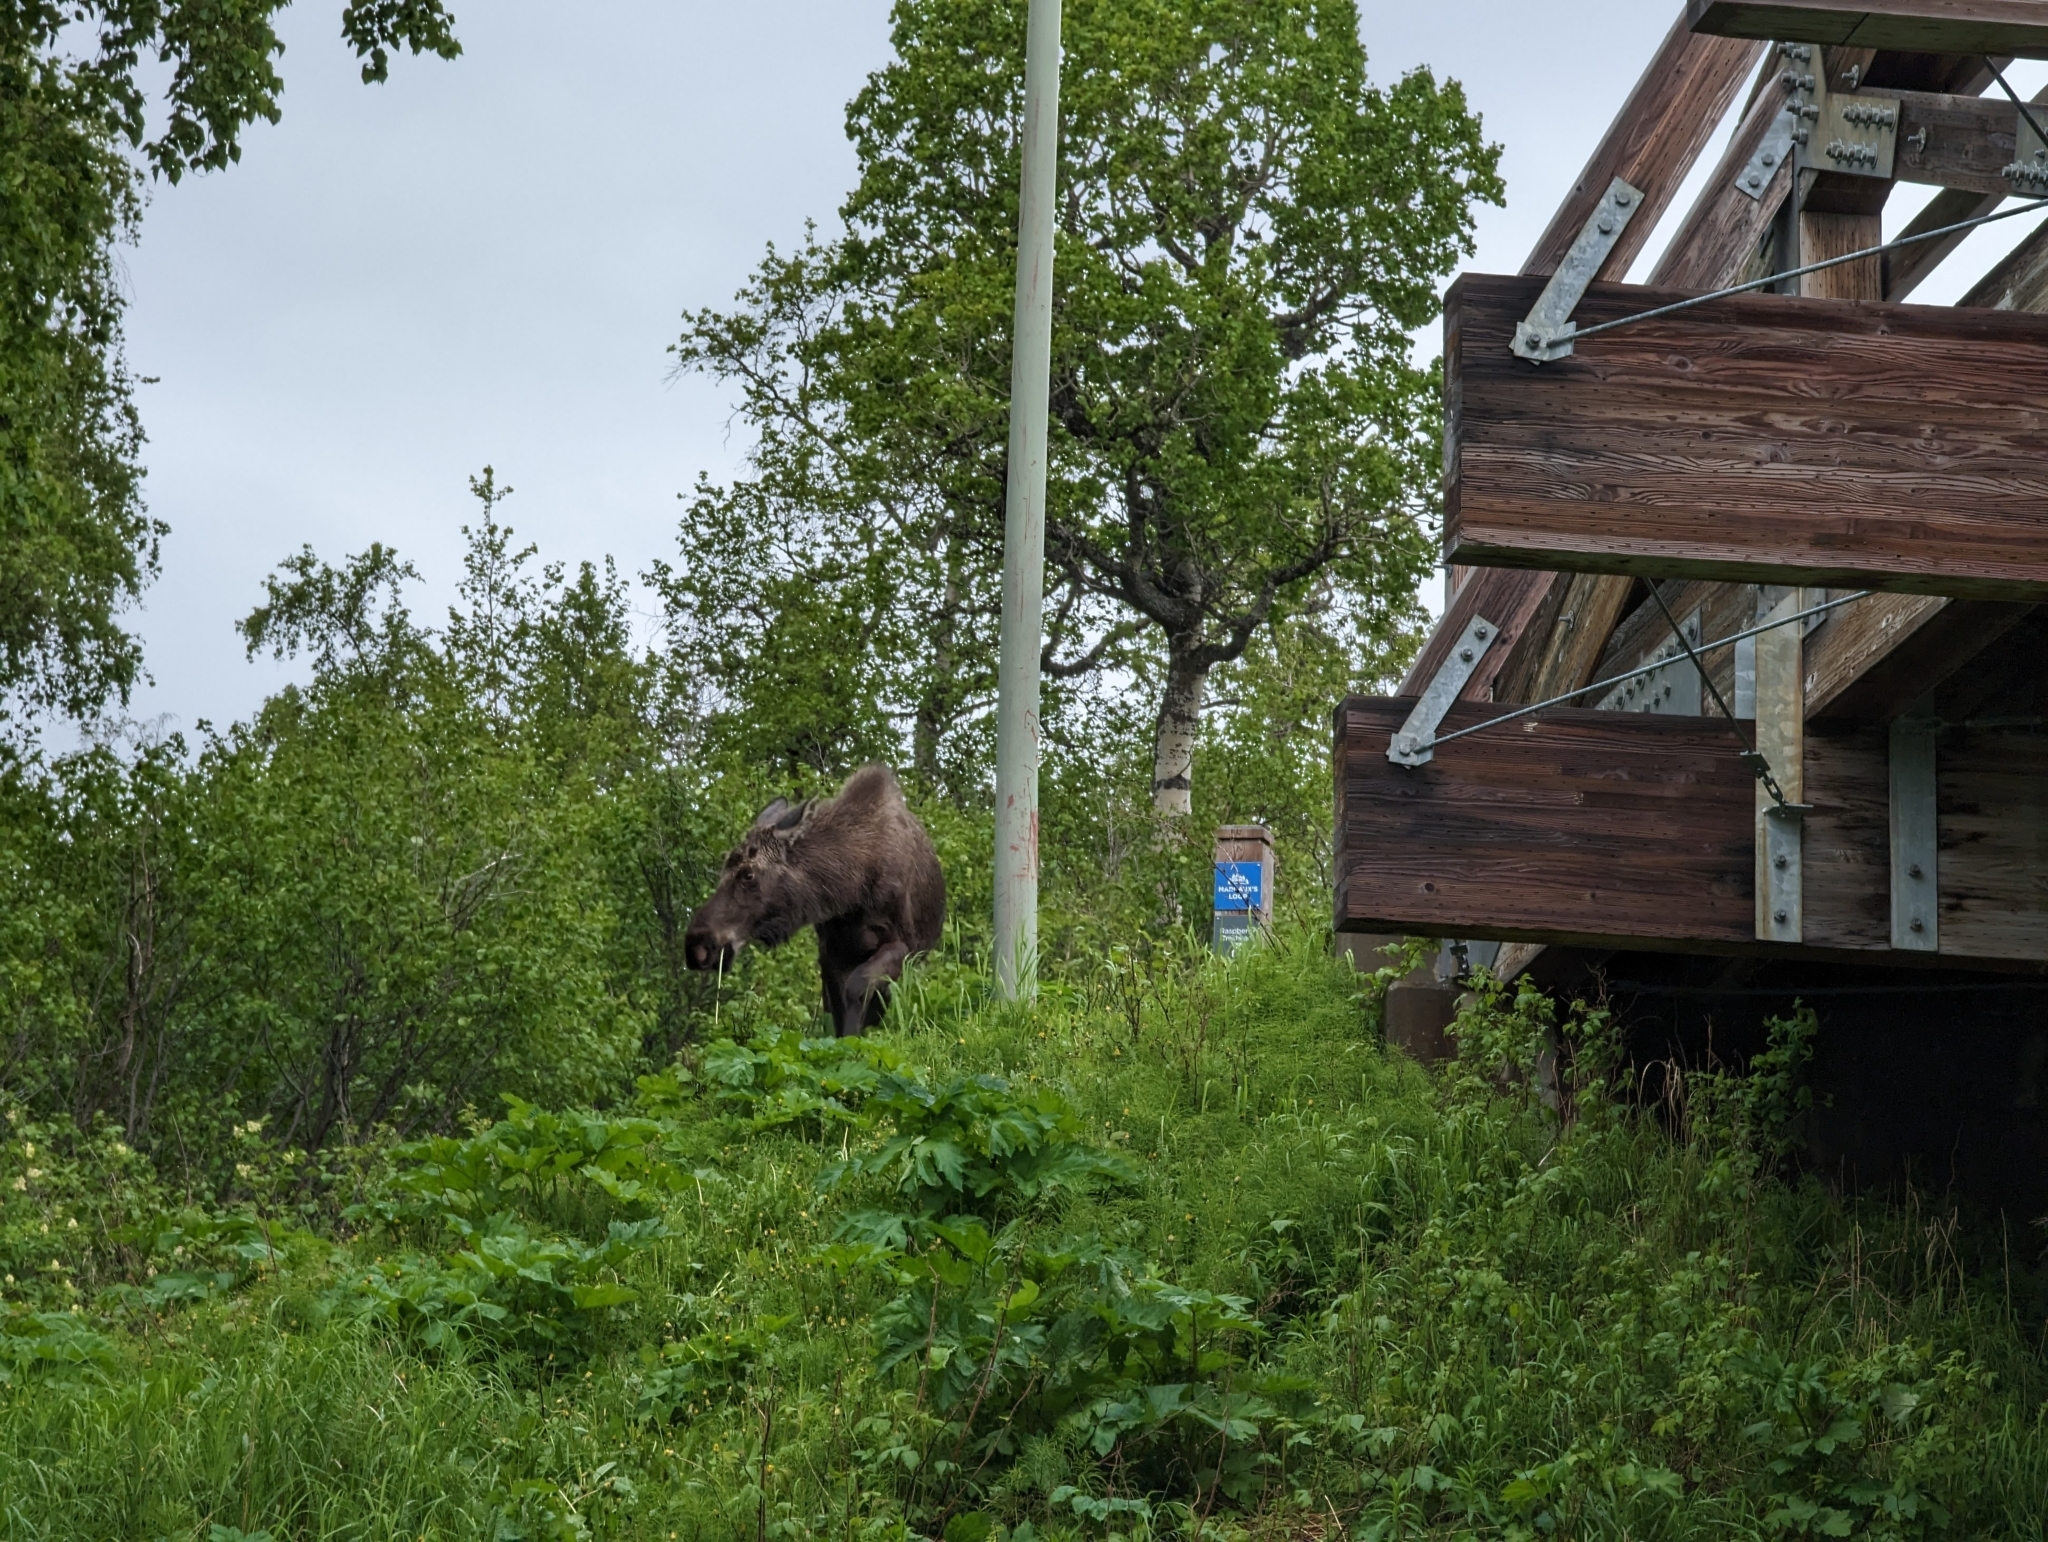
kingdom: Animalia
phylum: Chordata
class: Mammalia
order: Artiodactyla
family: Cervidae
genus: Alces
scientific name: Alces alces
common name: Moose
